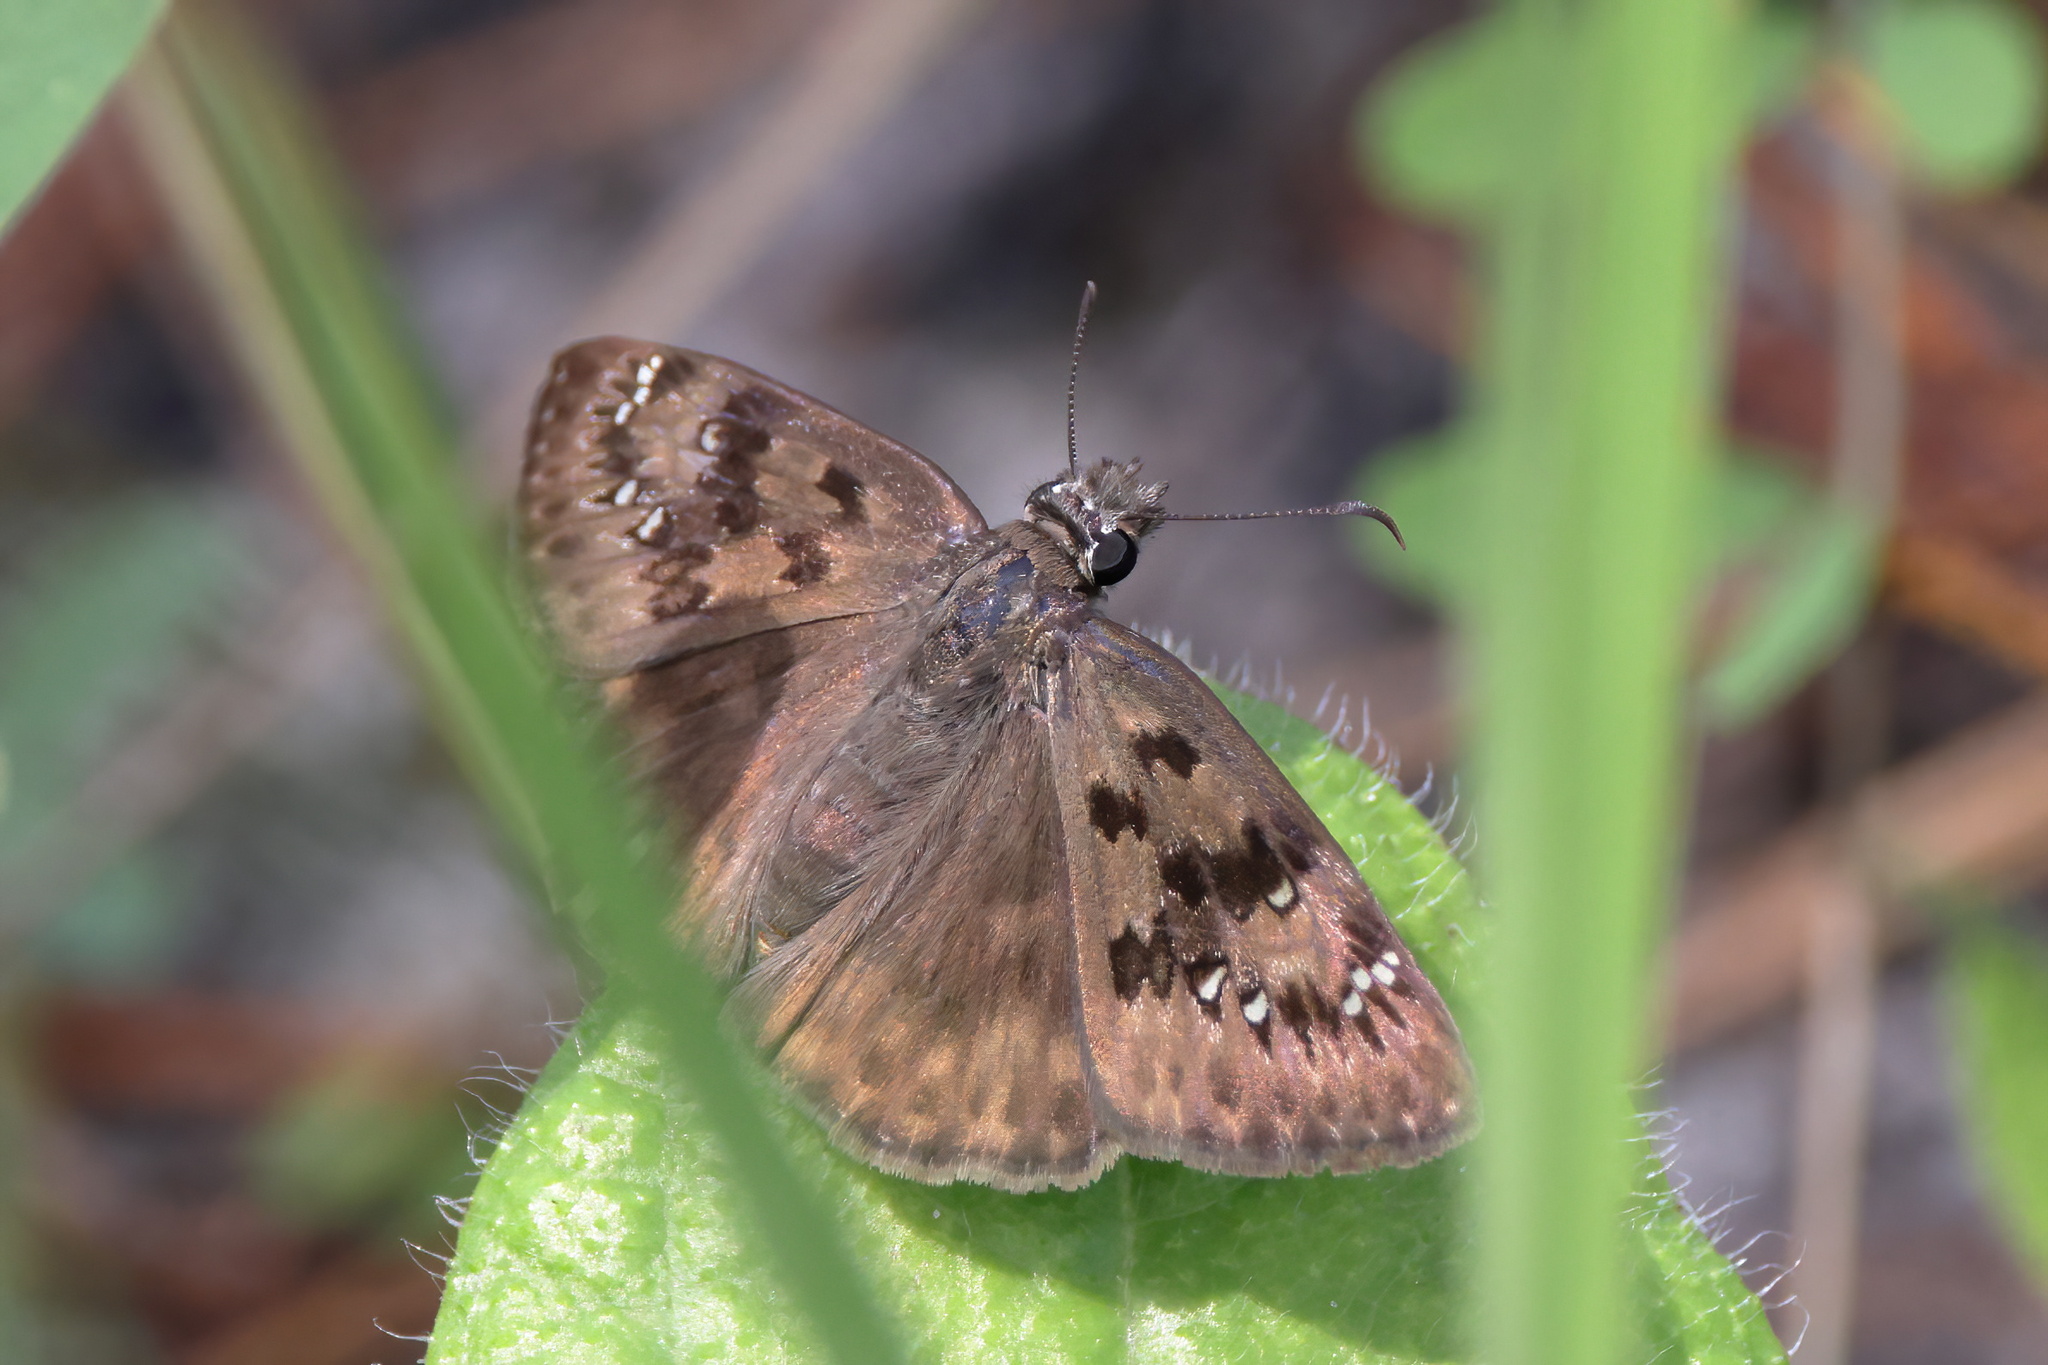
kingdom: Animalia
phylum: Arthropoda
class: Insecta
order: Lepidoptera
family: Hesperiidae
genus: Erynnis
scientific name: Erynnis horatius
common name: Horace's duskywing
